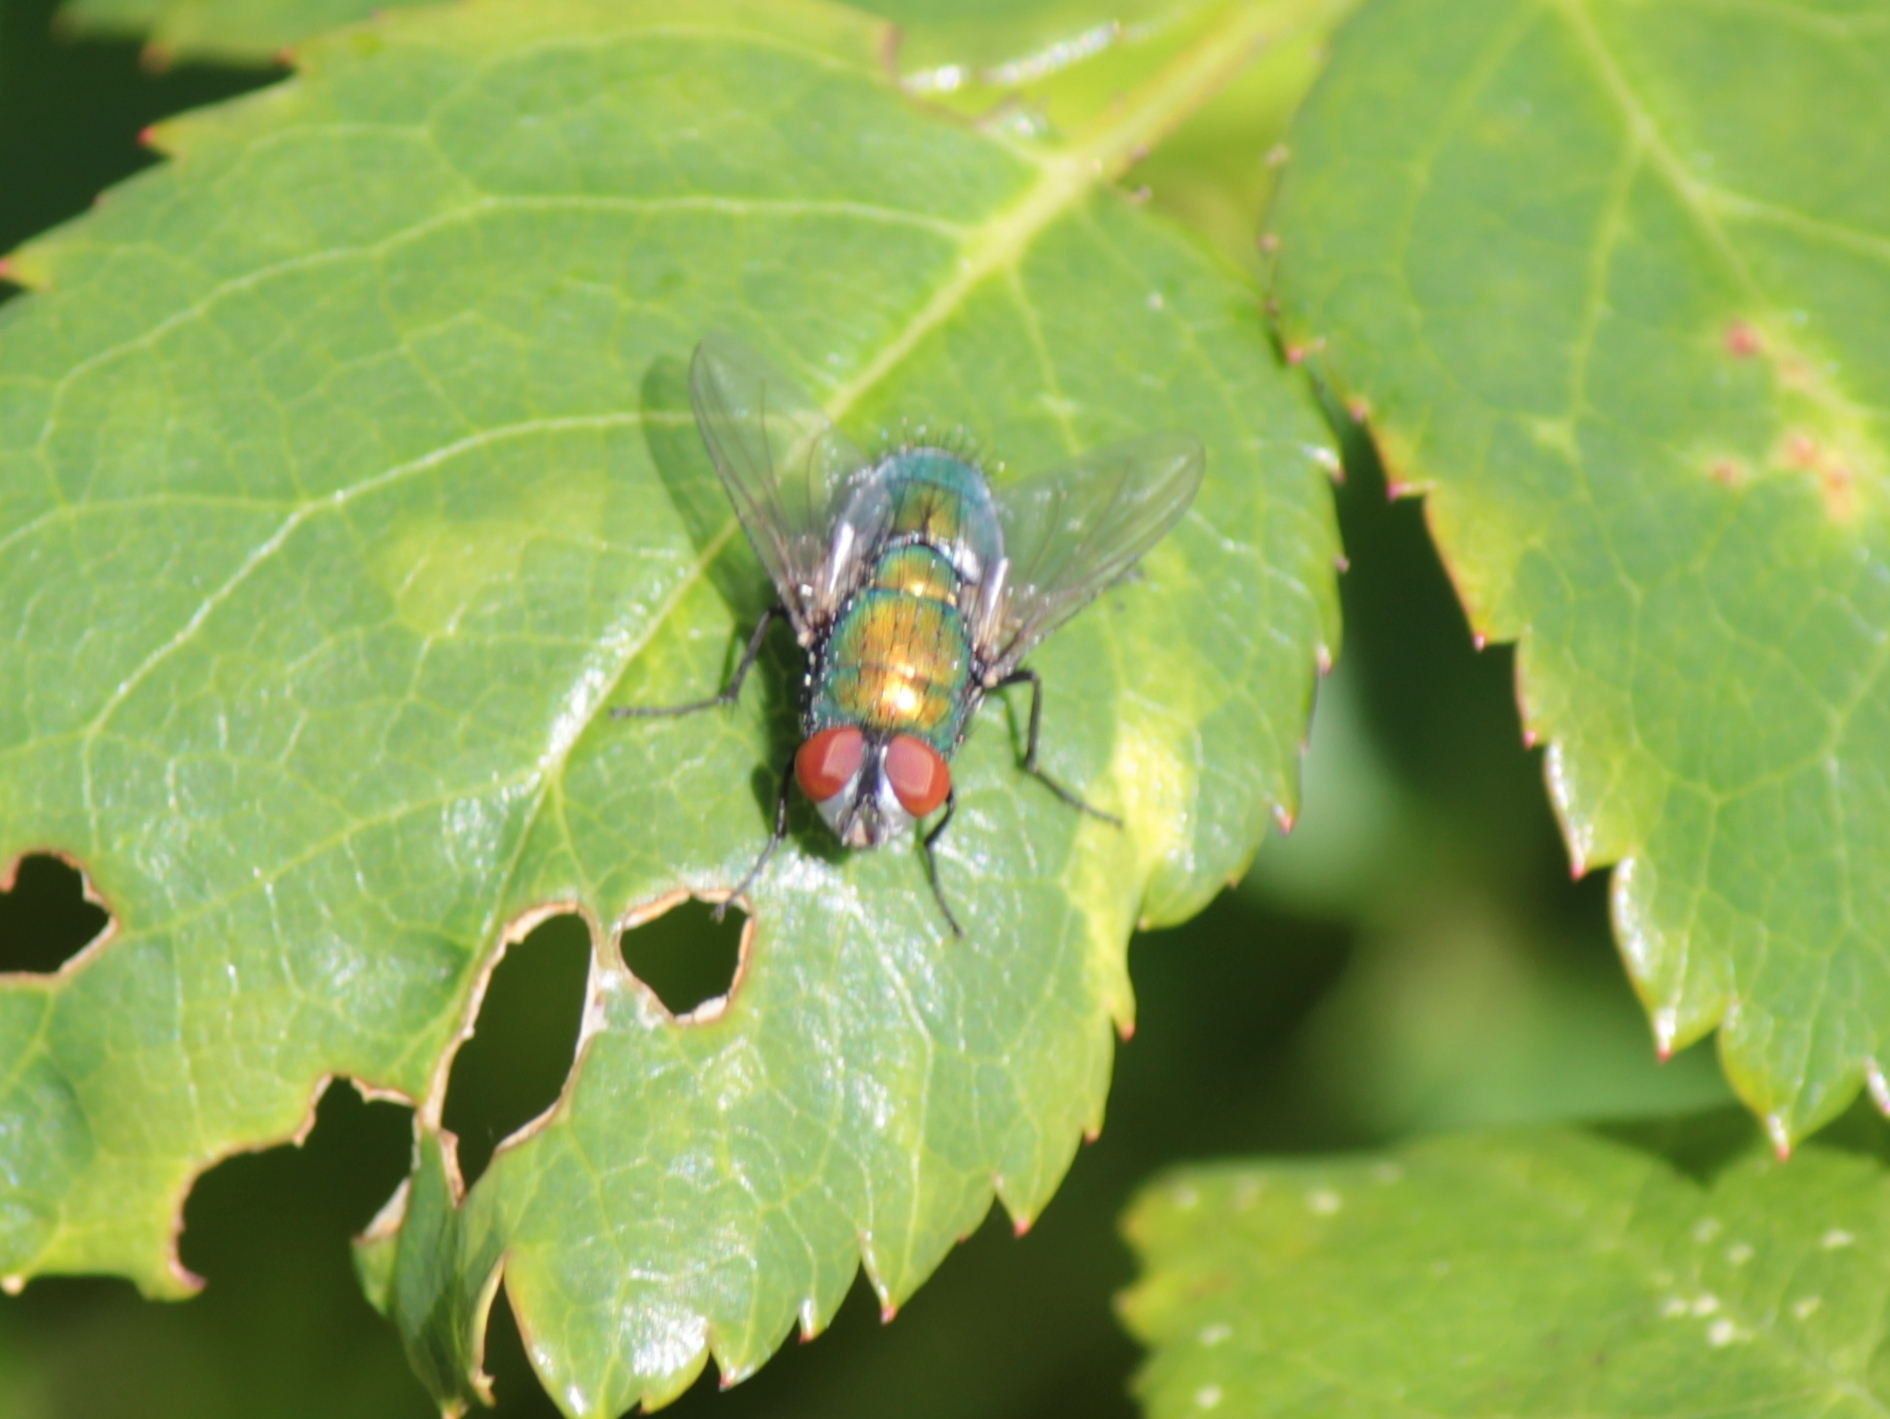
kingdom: Animalia
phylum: Arthropoda
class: Insecta
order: Diptera
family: Calliphoridae
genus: Lucilia
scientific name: Lucilia sericata
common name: Blow fly
